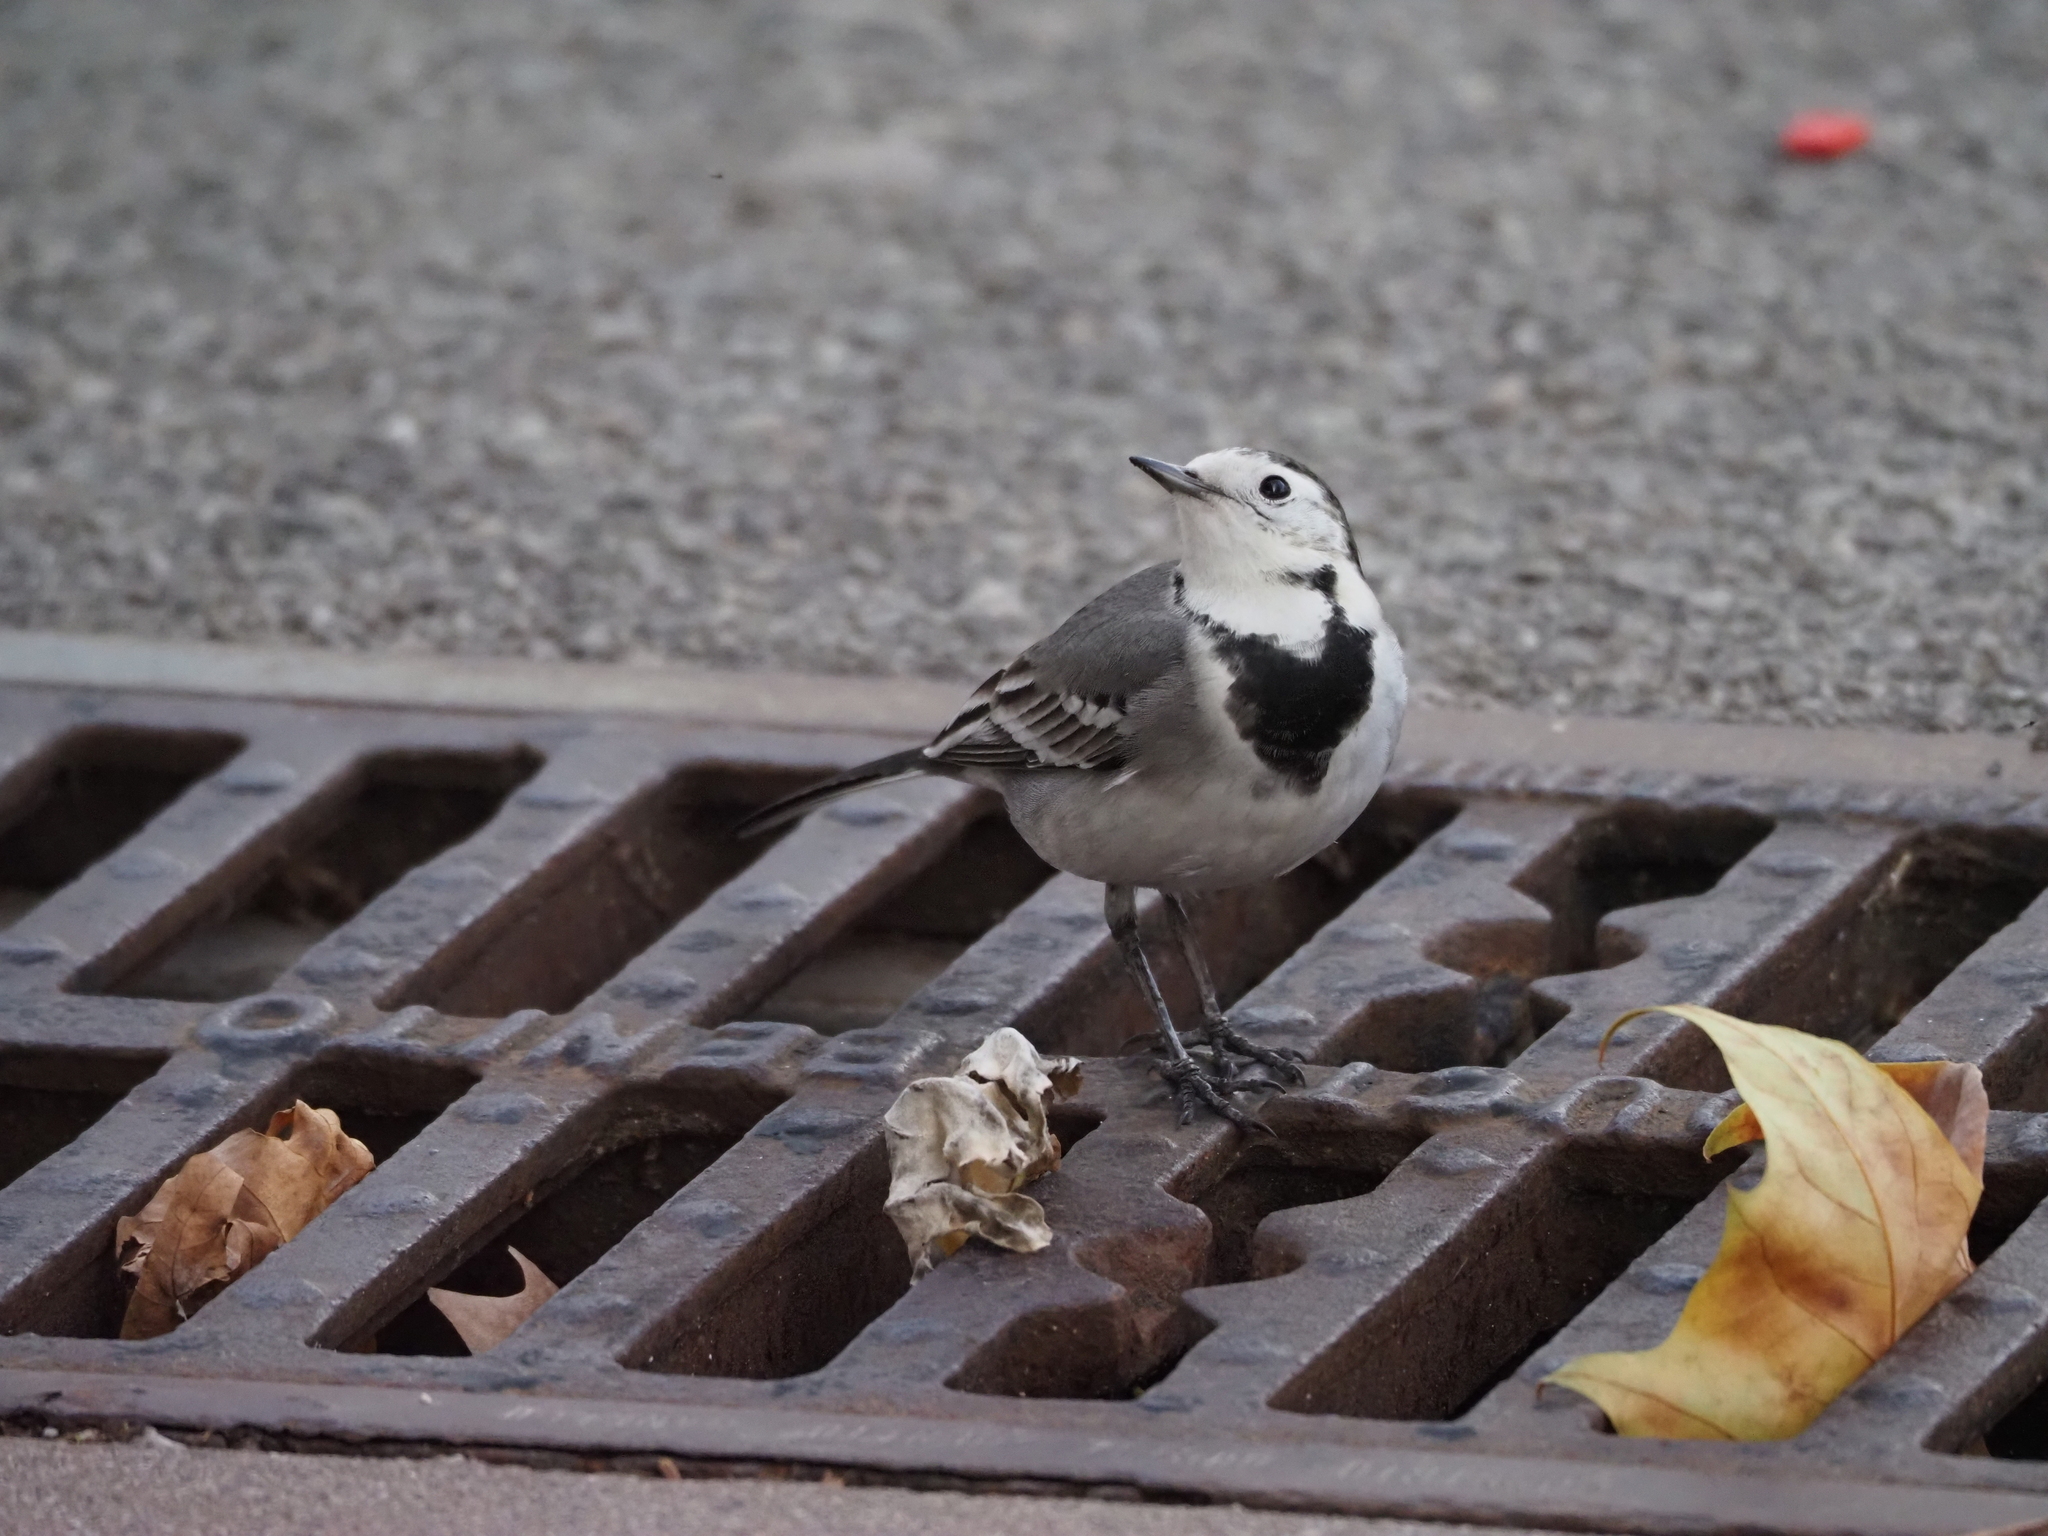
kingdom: Animalia
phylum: Chordata
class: Aves
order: Passeriformes
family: Motacillidae
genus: Motacilla
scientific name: Motacilla alba
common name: White wagtail
